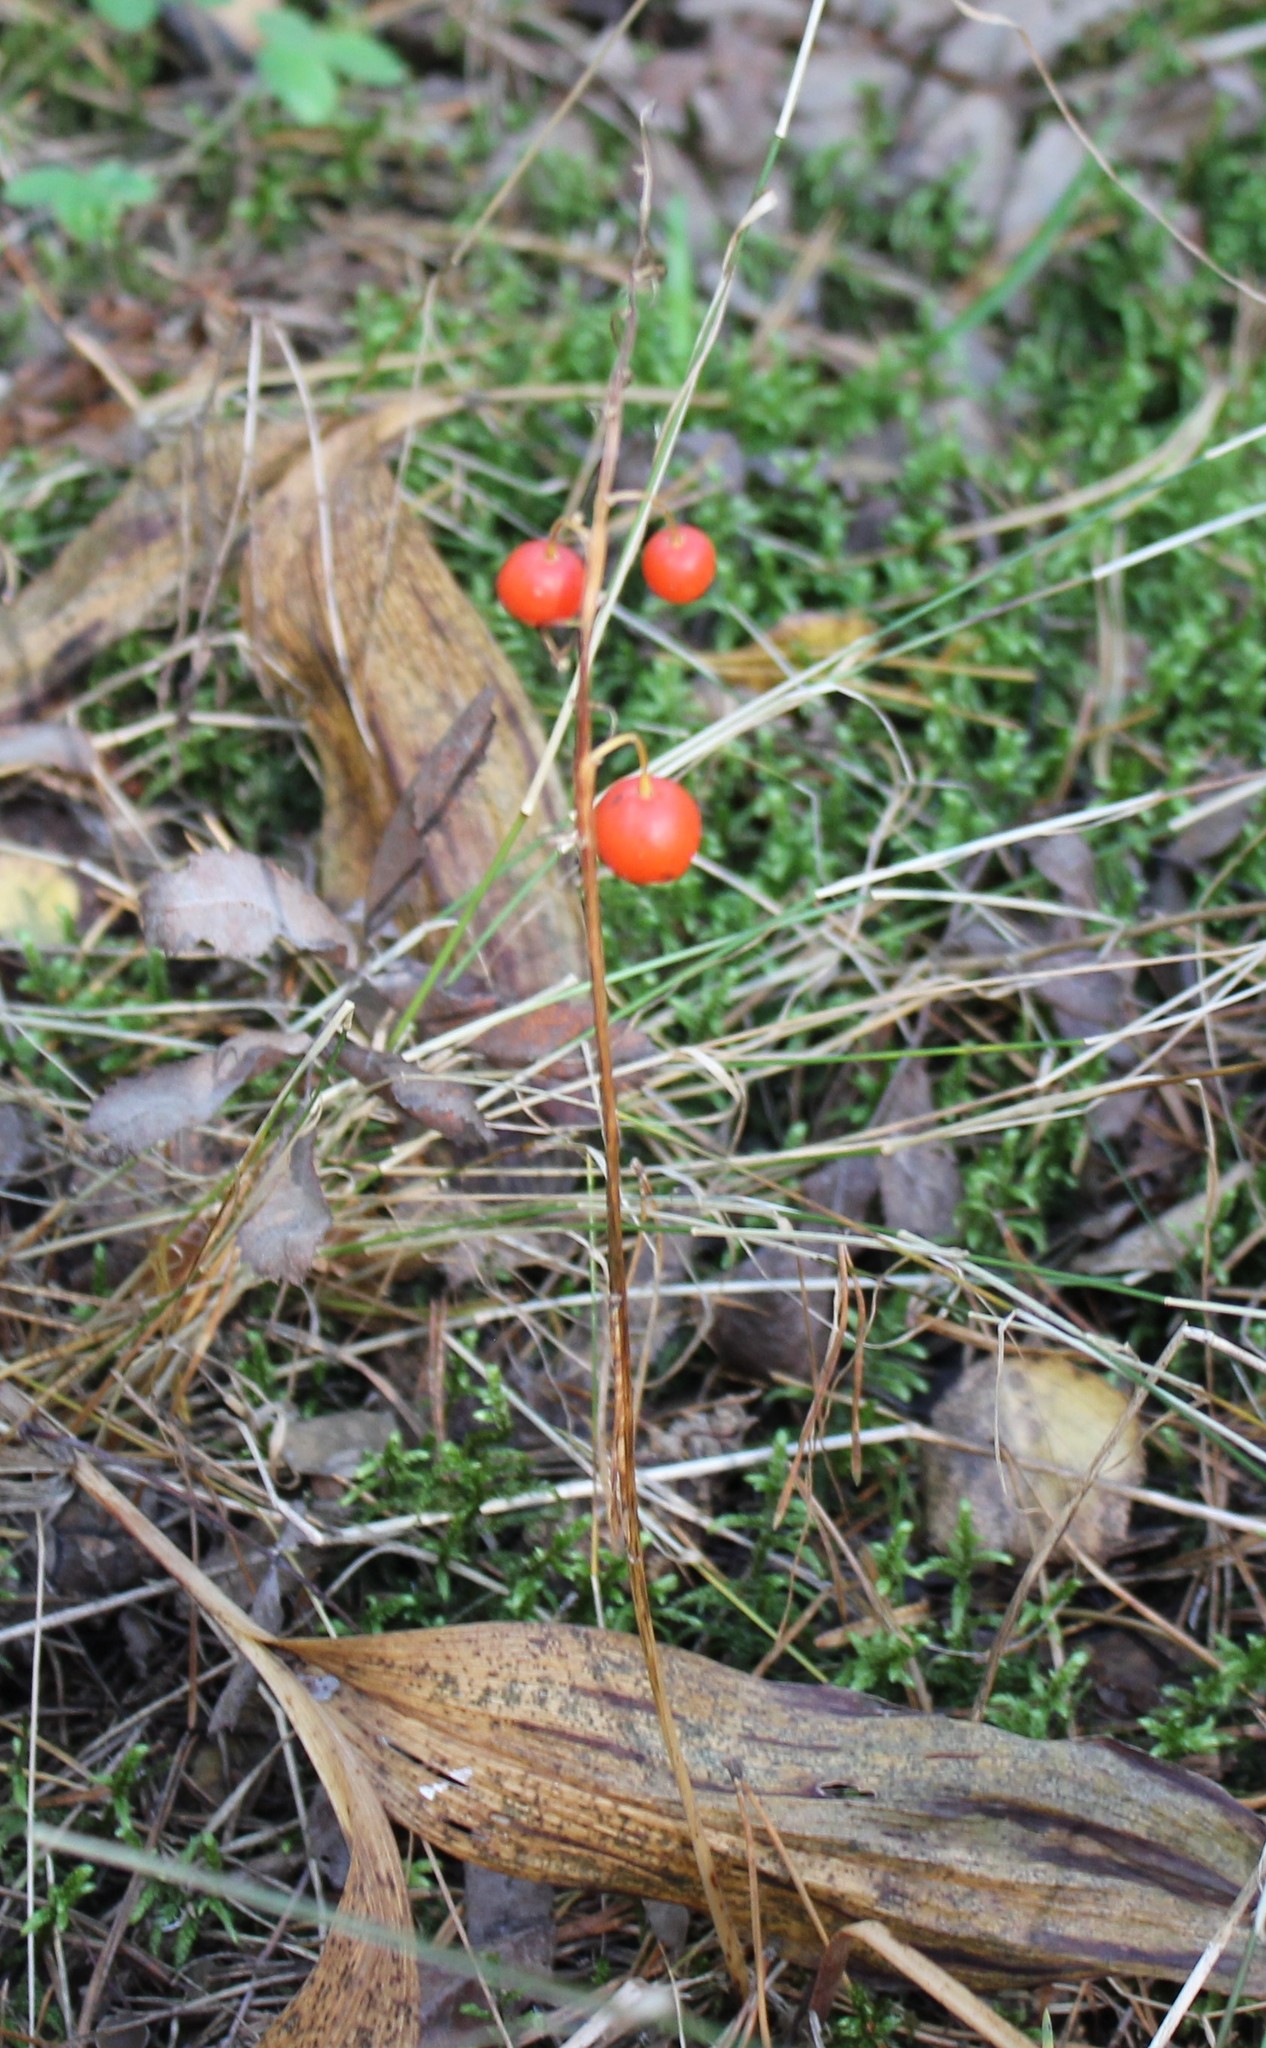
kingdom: Plantae
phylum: Tracheophyta
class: Liliopsida
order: Asparagales
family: Asparagaceae
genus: Convallaria
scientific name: Convallaria majalis
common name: Lily-of-the-valley
